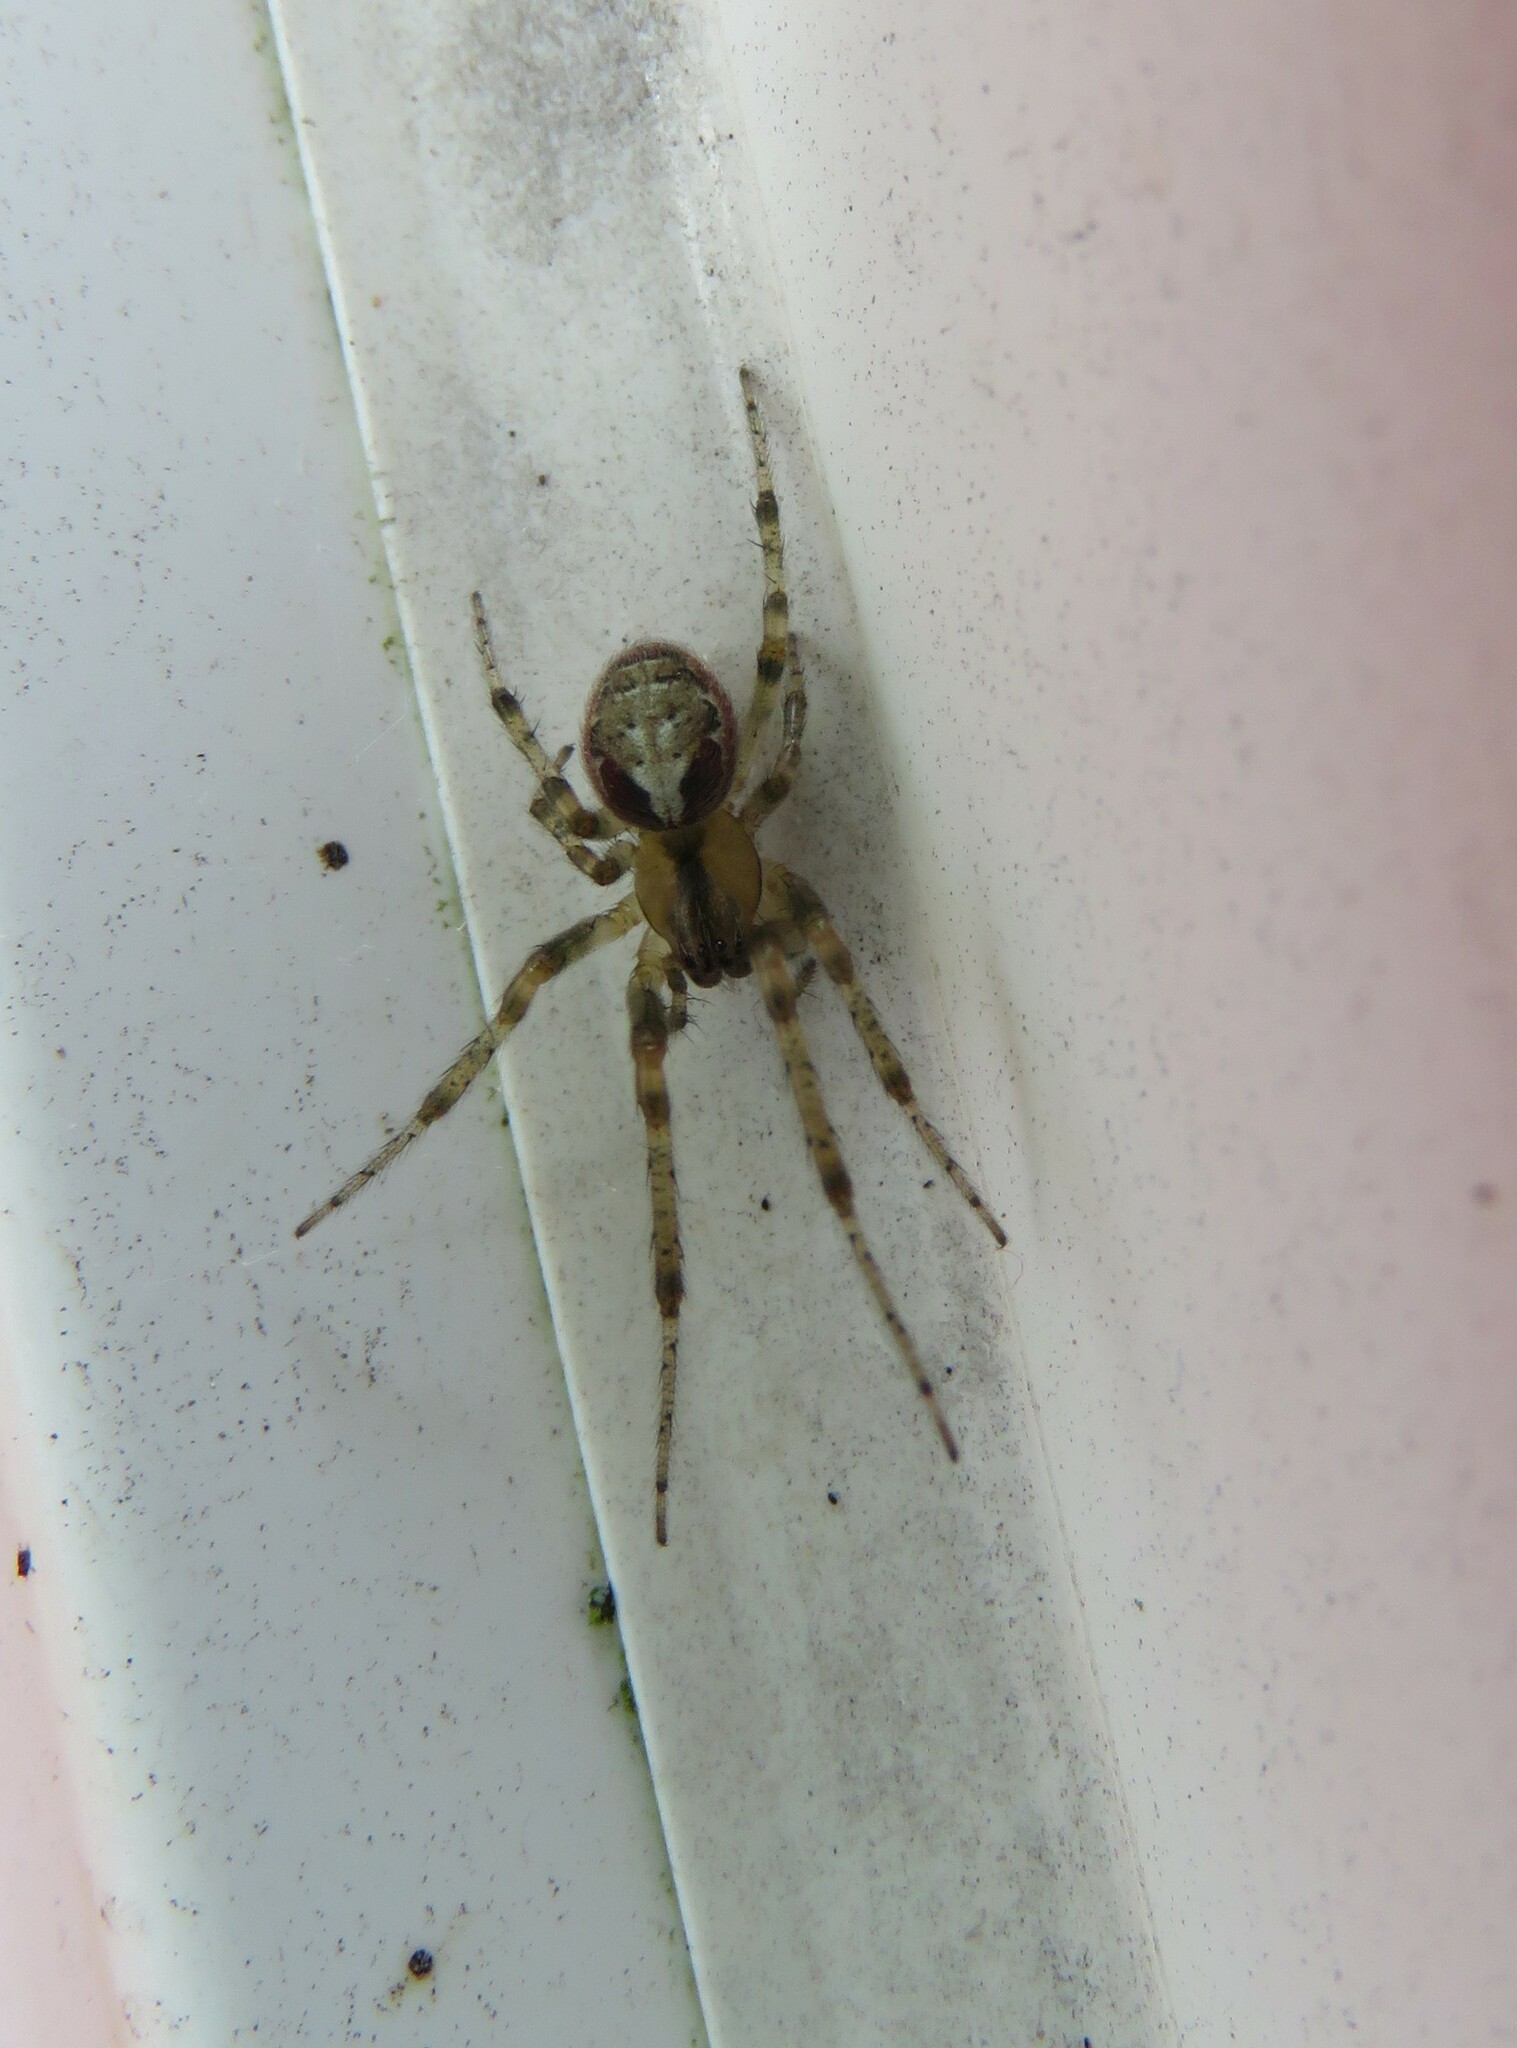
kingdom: Animalia
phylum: Arthropoda
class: Arachnida
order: Araneae
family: Araneidae
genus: Zygiella
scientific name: Zygiella atrica
